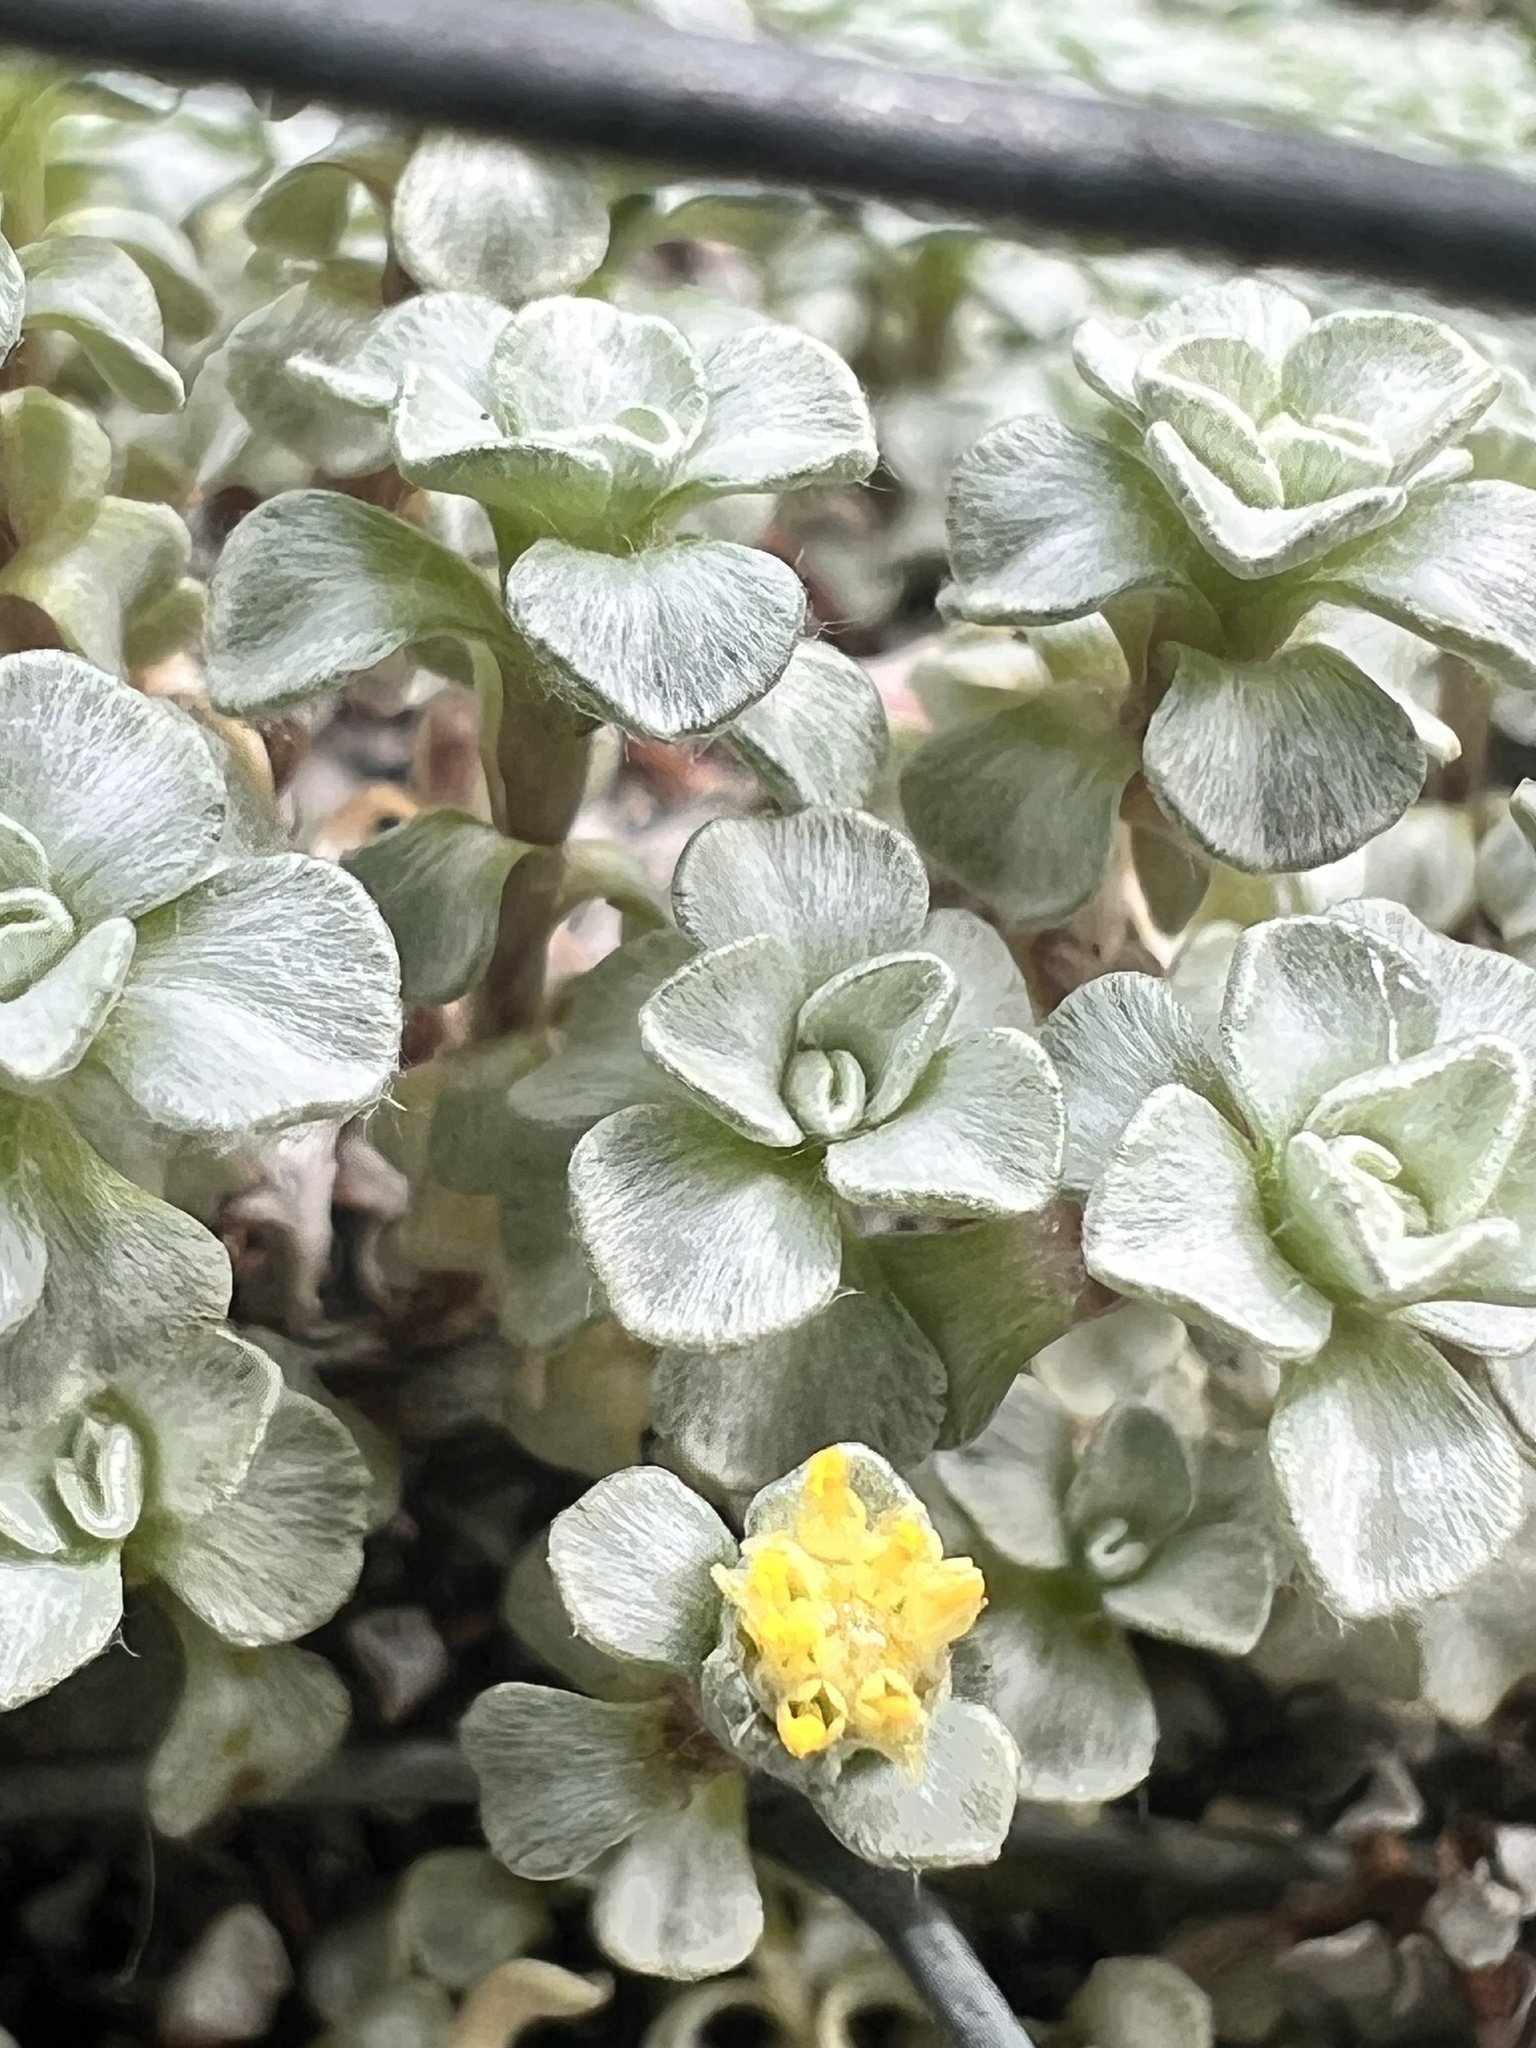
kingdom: Plantae
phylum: Tracheophyta
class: Magnoliopsida
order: Asterales
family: Asteraceae
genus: Raoulia
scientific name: Raoulia hookeri
